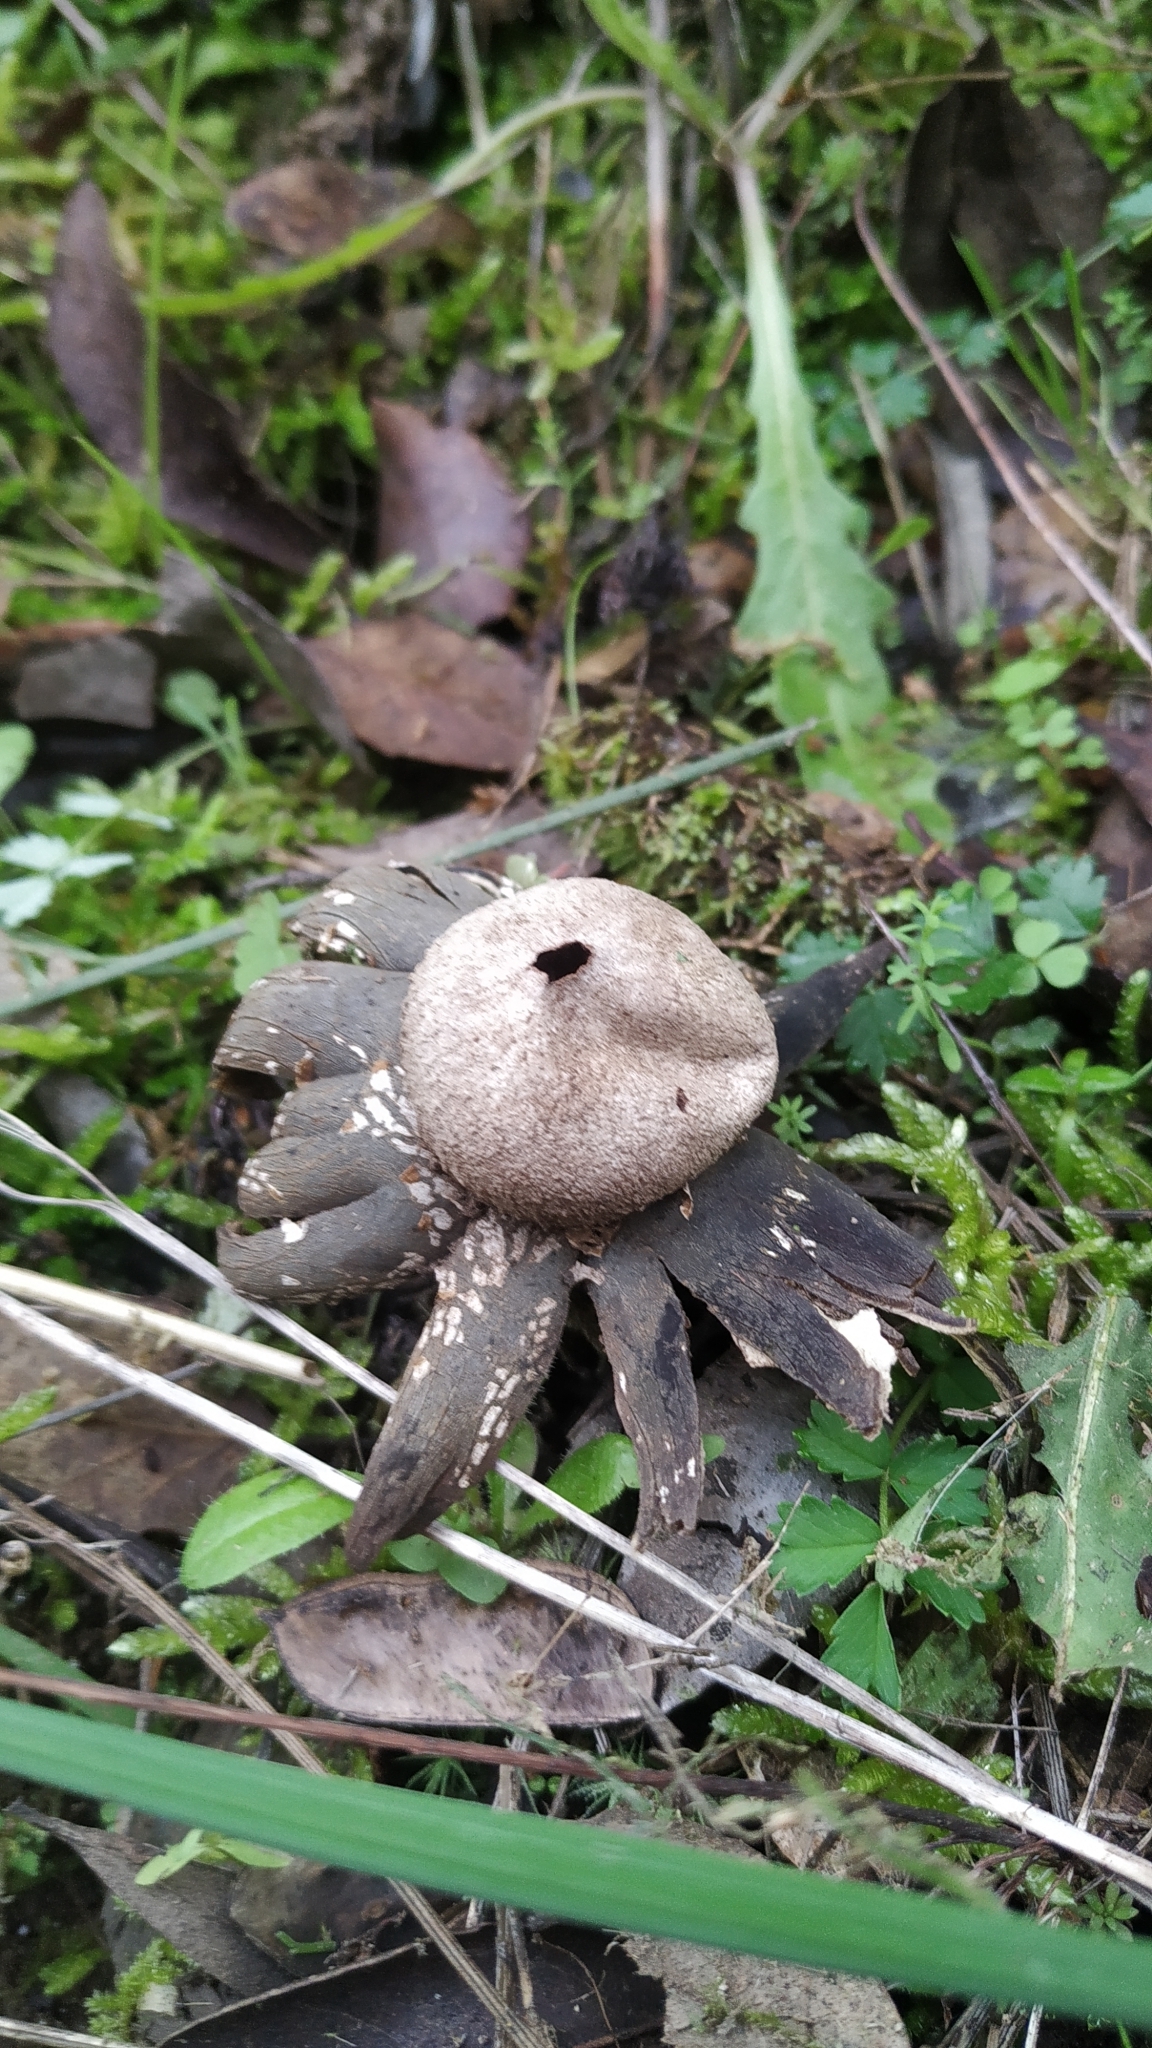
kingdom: Fungi
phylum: Basidiomycota
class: Agaricomycetes
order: Boletales
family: Diplocystidiaceae
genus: Astraeus
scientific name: Astraeus hygrometricus
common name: Barometer earthstar
